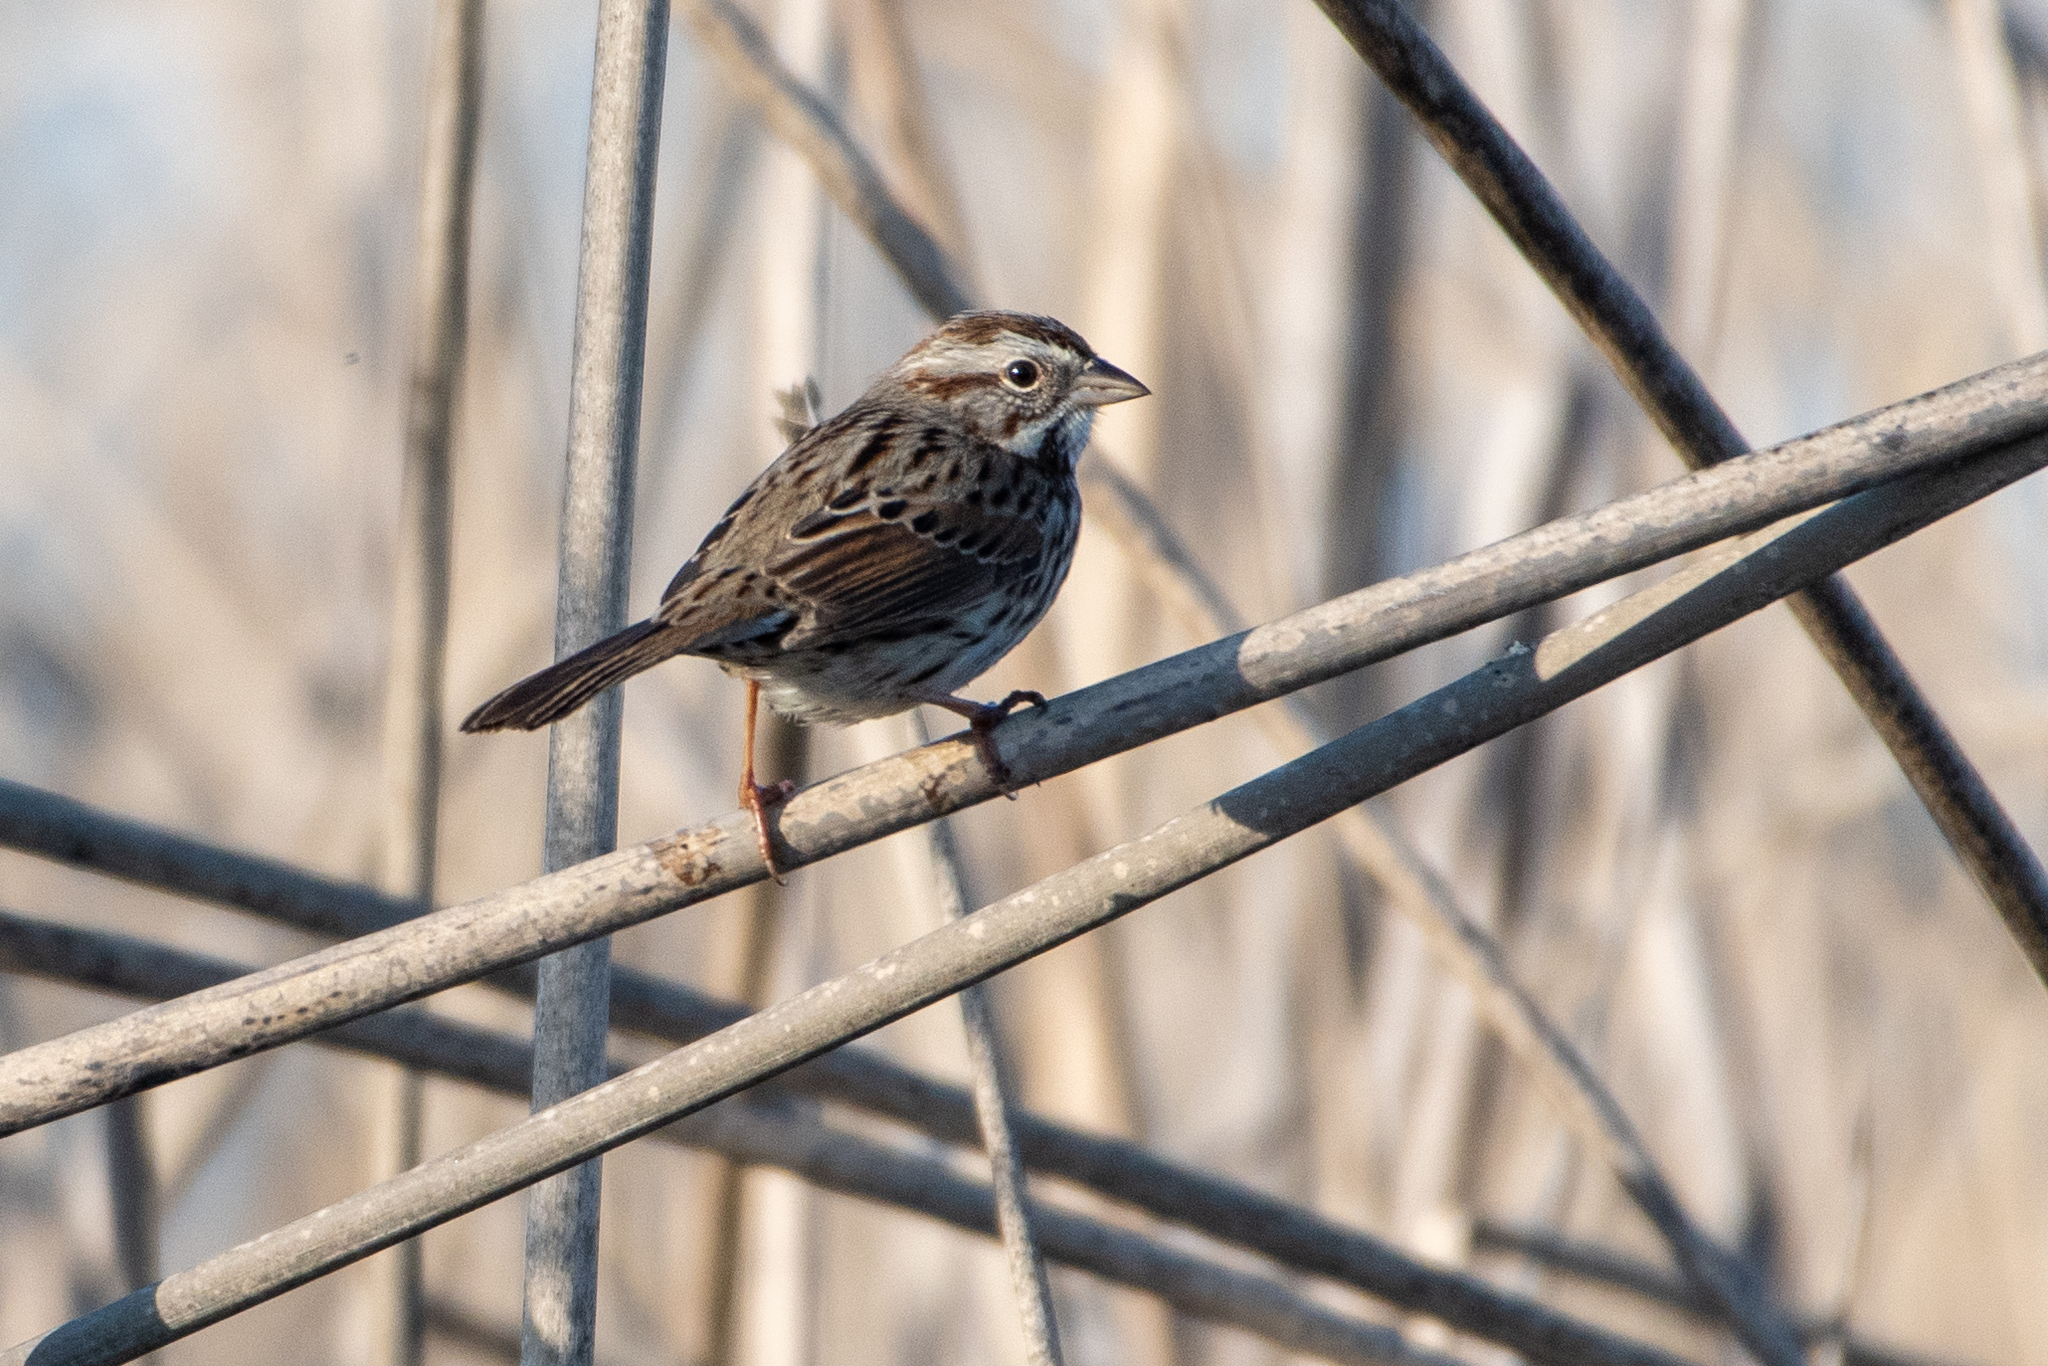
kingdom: Animalia
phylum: Chordata
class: Aves
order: Passeriformes
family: Passerellidae
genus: Melospiza
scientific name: Melospiza melodia
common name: Song sparrow
